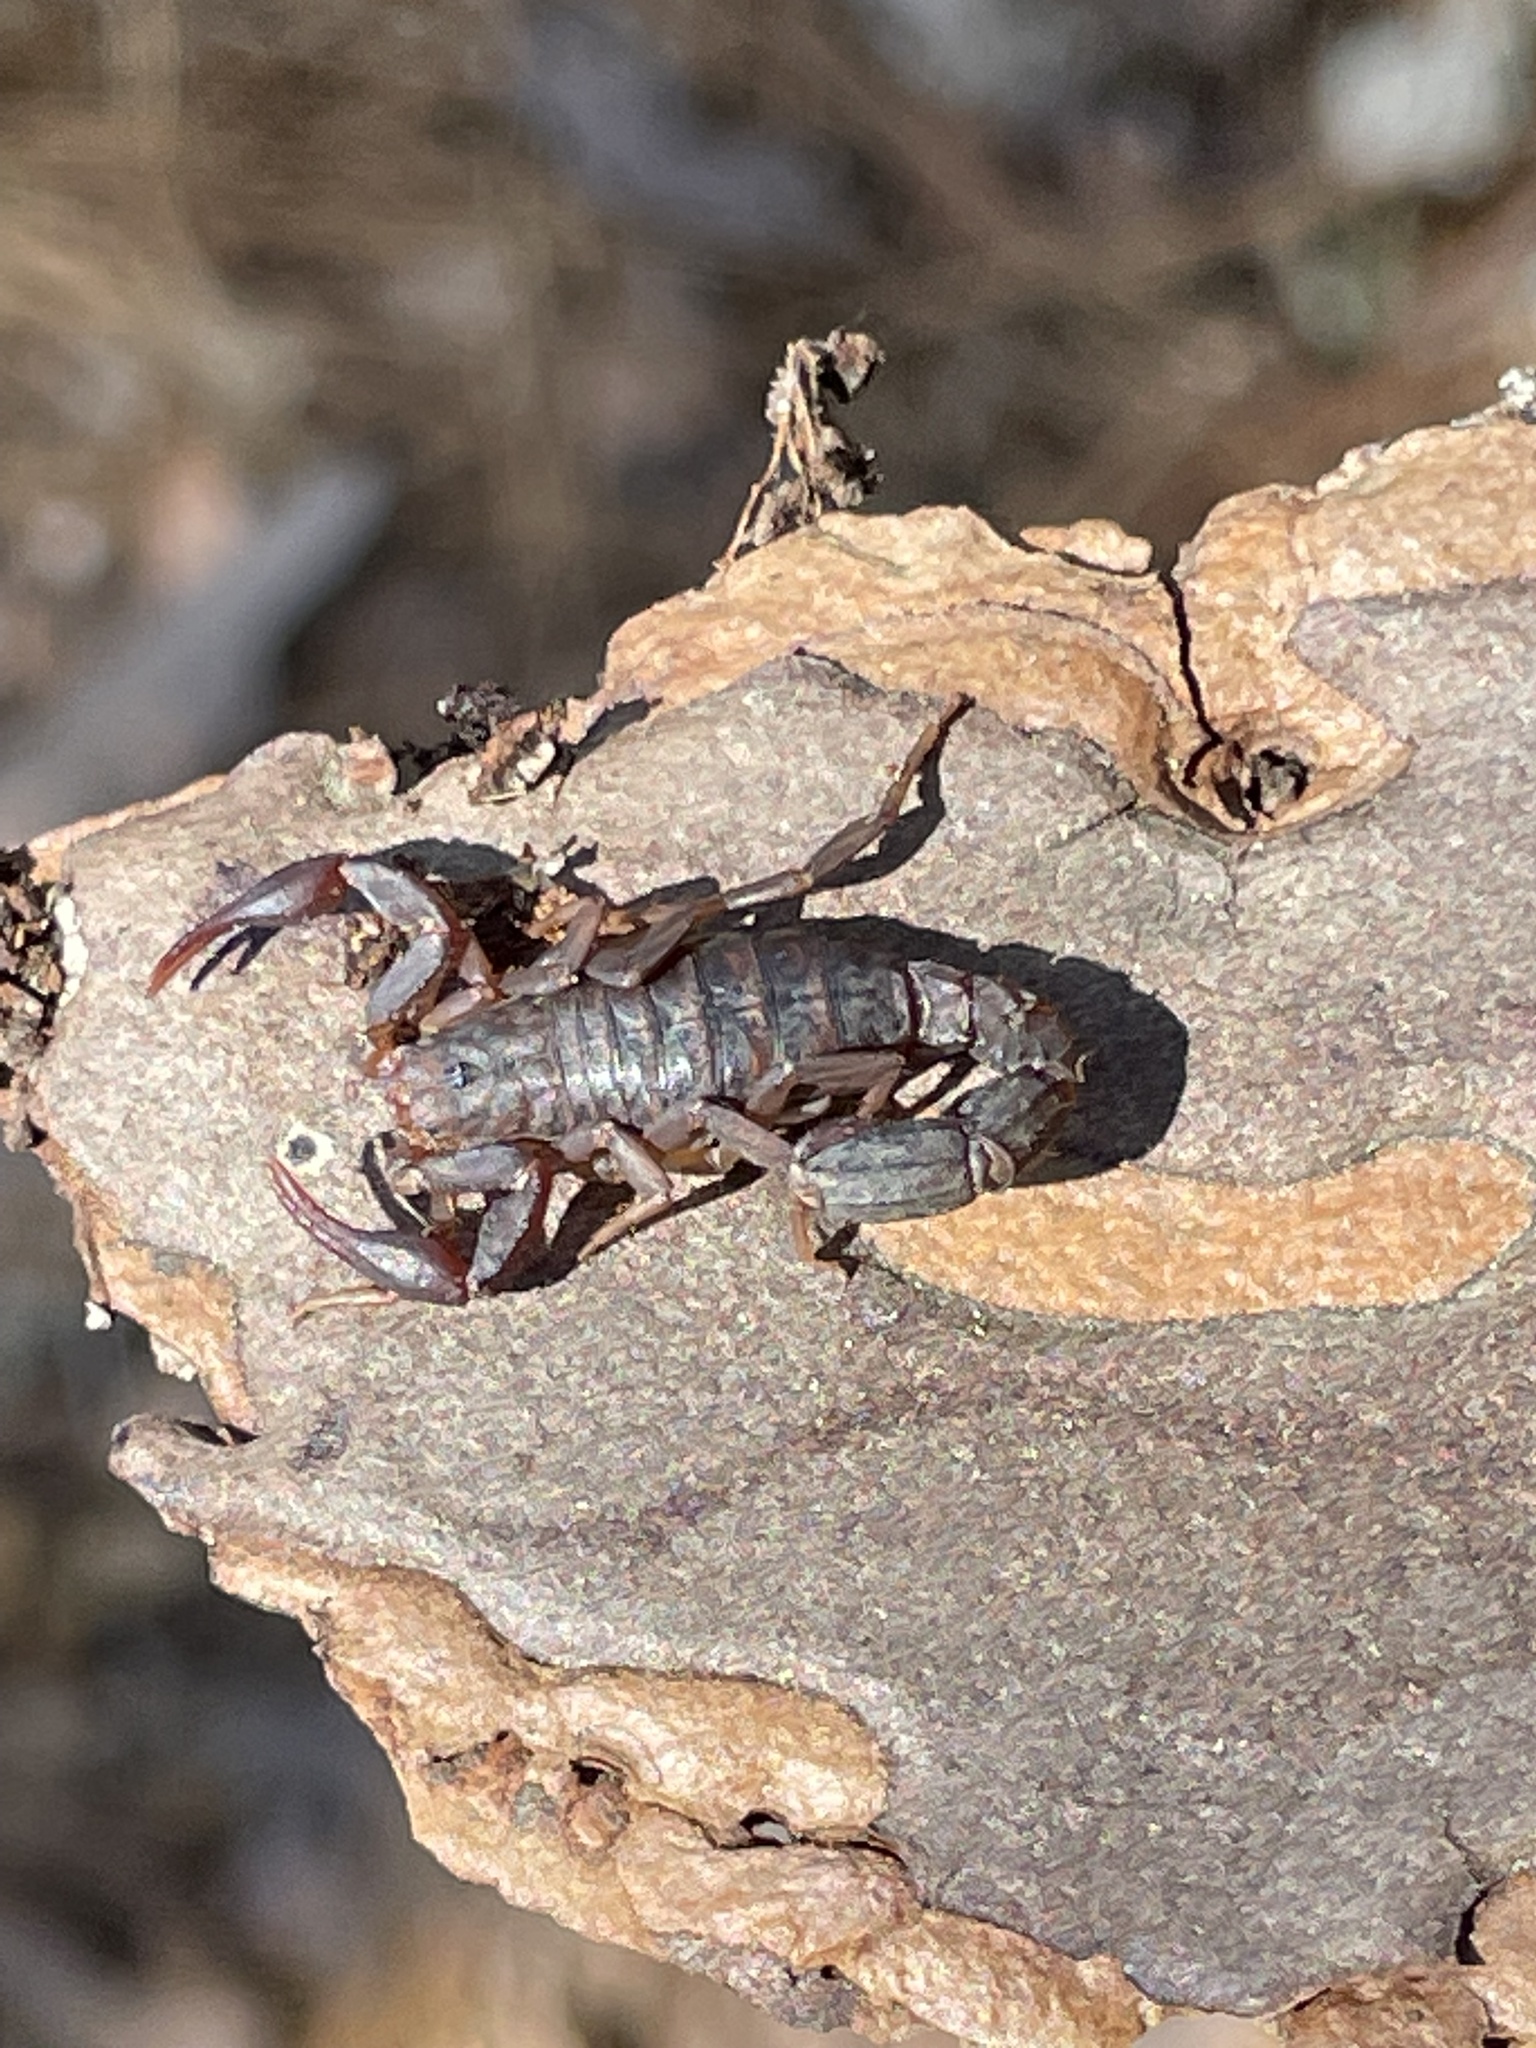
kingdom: Animalia
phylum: Arthropoda
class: Arachnida
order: Scorpiones
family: Vaejovidae
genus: Vaejovis
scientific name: Vaejovis carolinianus
